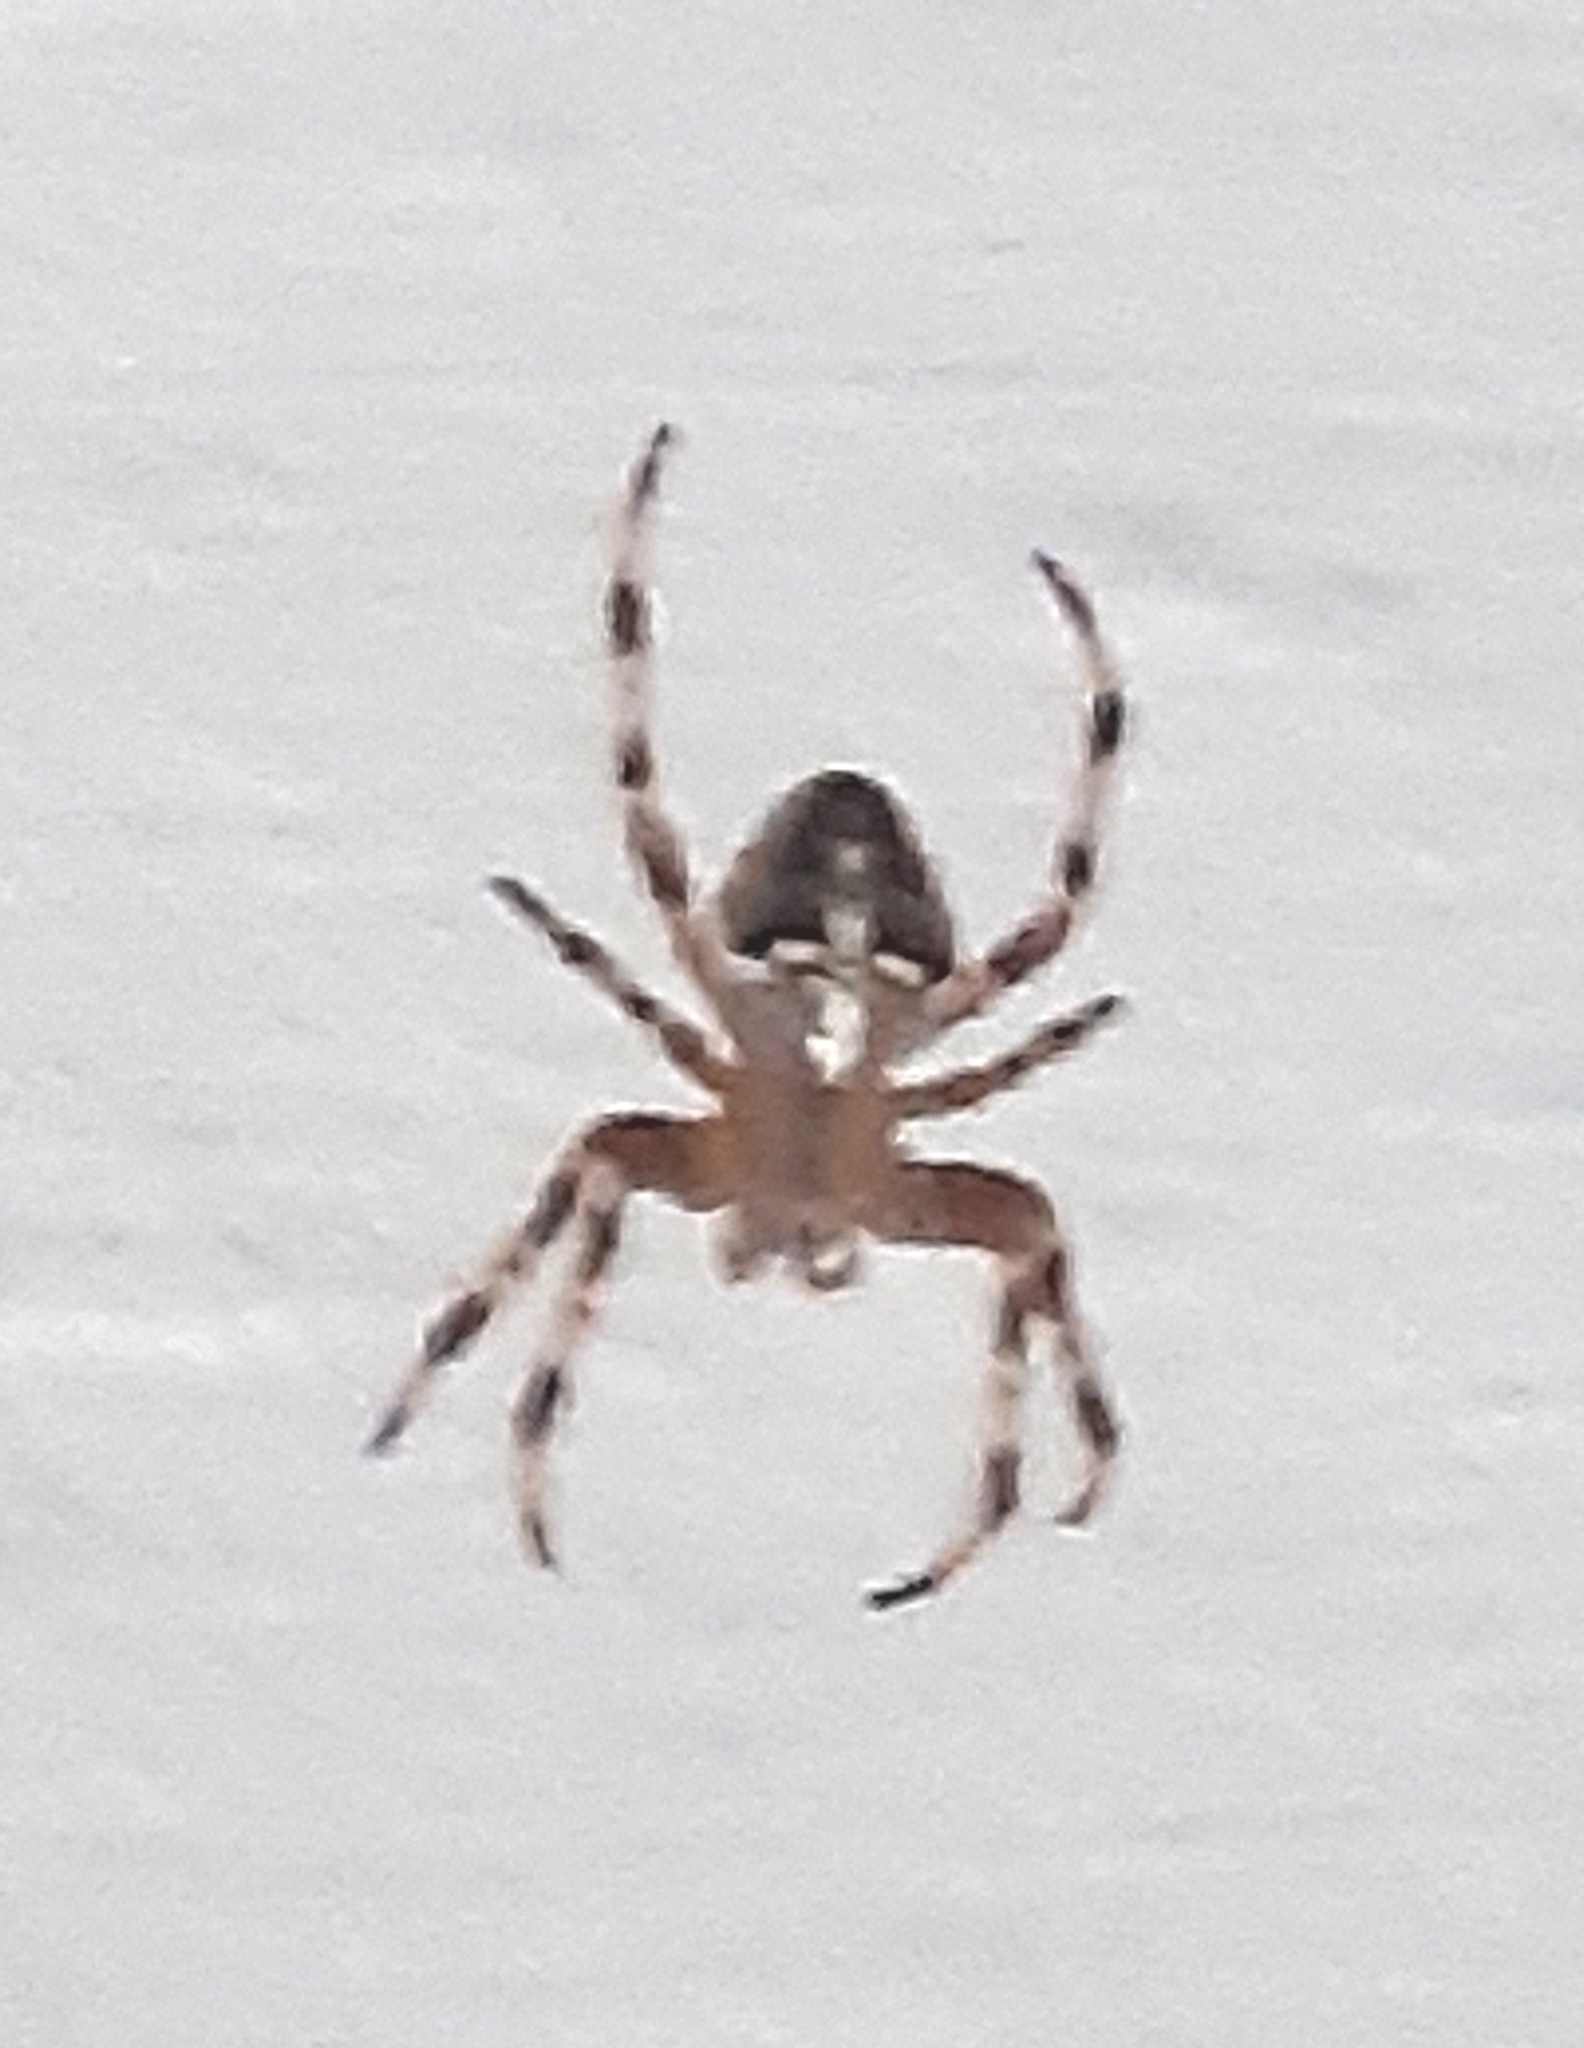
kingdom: Animalia
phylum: Arthropoda
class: Arachnida
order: Araneae
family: Araneidae
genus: Araneus
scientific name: Araneus diadematus
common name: Cross orbweaver
